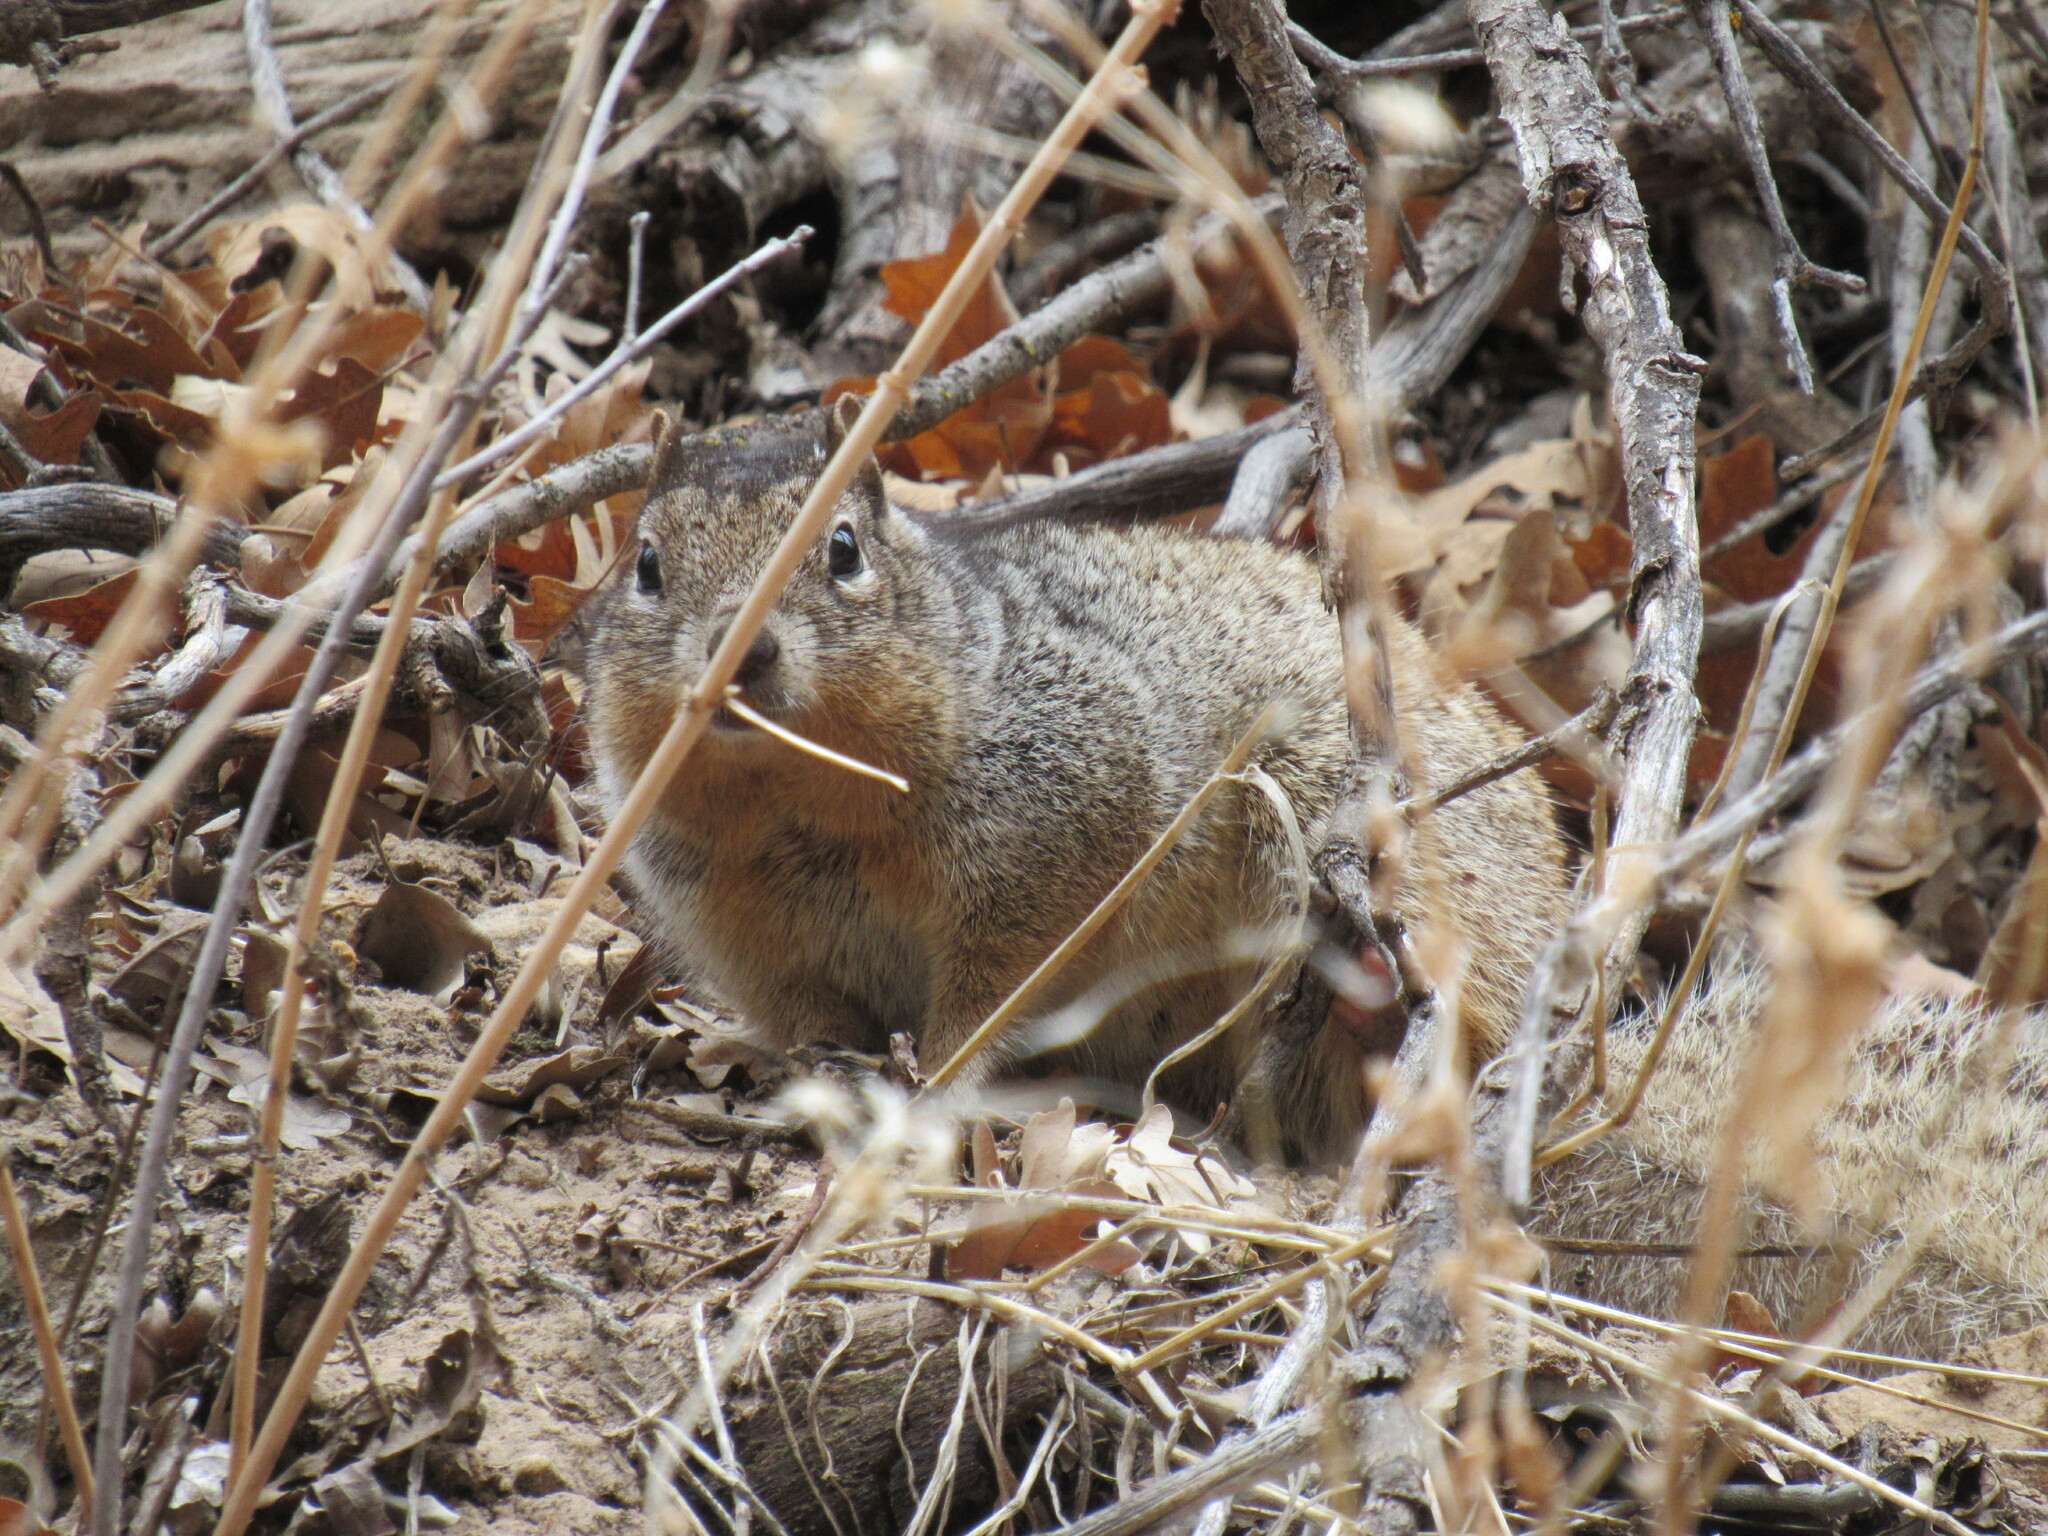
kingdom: Animalia
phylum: Chordata
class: Mammalia
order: Rodentia
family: Sciuridae
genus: Otospermophilus
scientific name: Otospermophilus variegatus
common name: Rock squirrel
